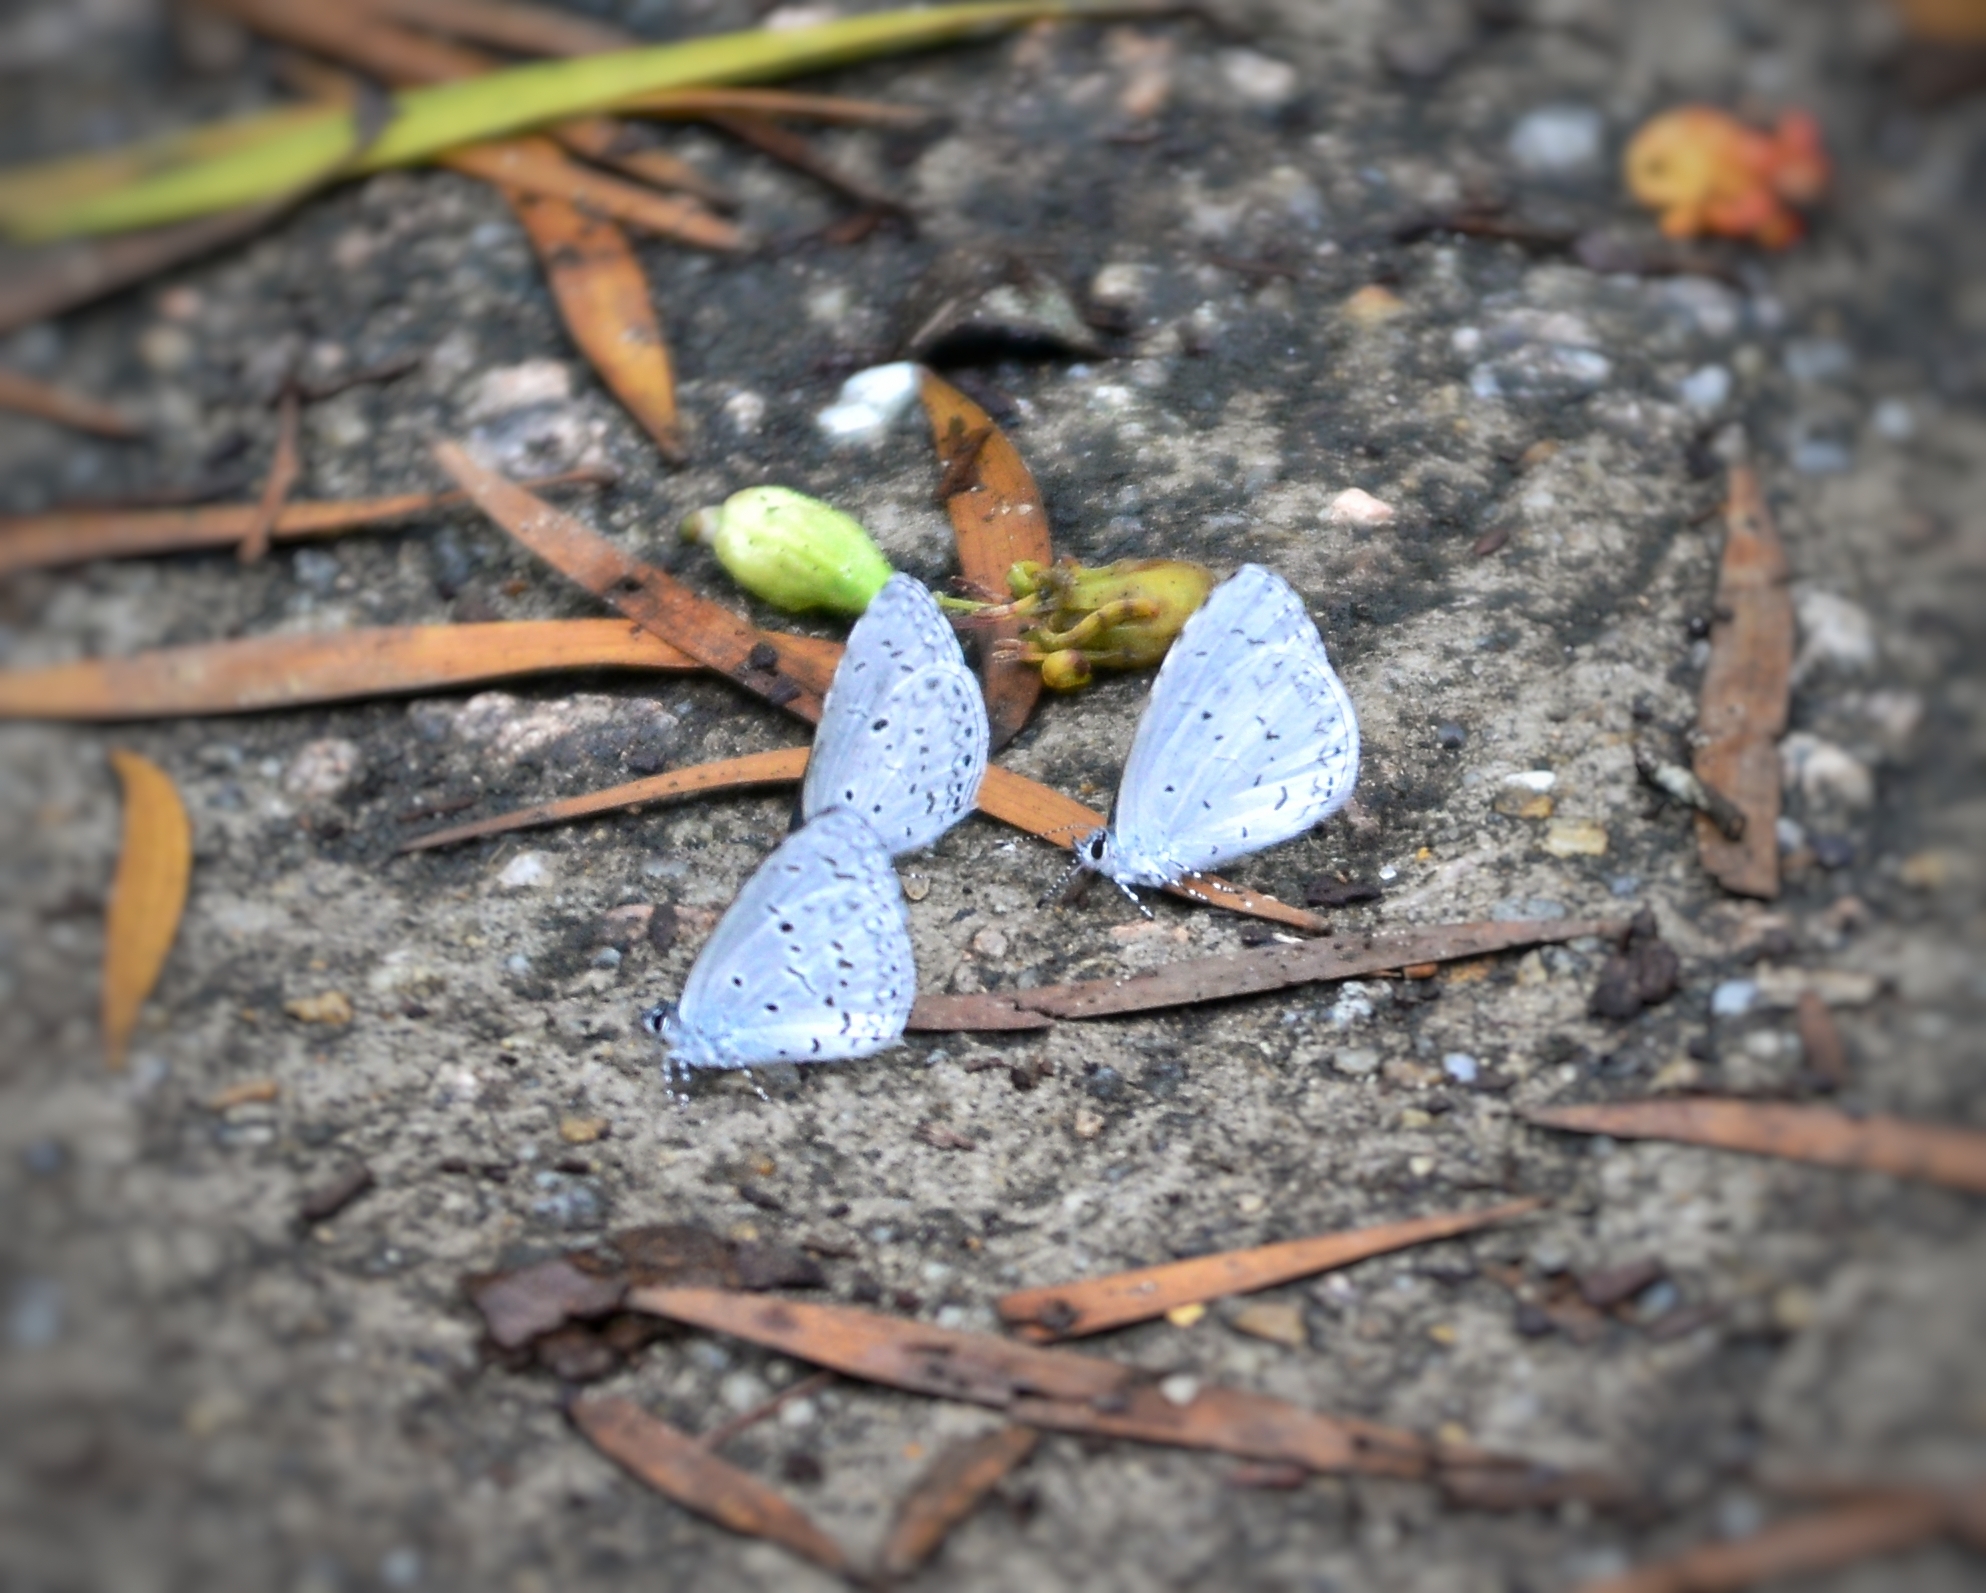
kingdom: Animalia
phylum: Arthropoda
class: Insecta
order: Lepidoptera
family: Lycaenidae
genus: Udara
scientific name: Udara dilectus
